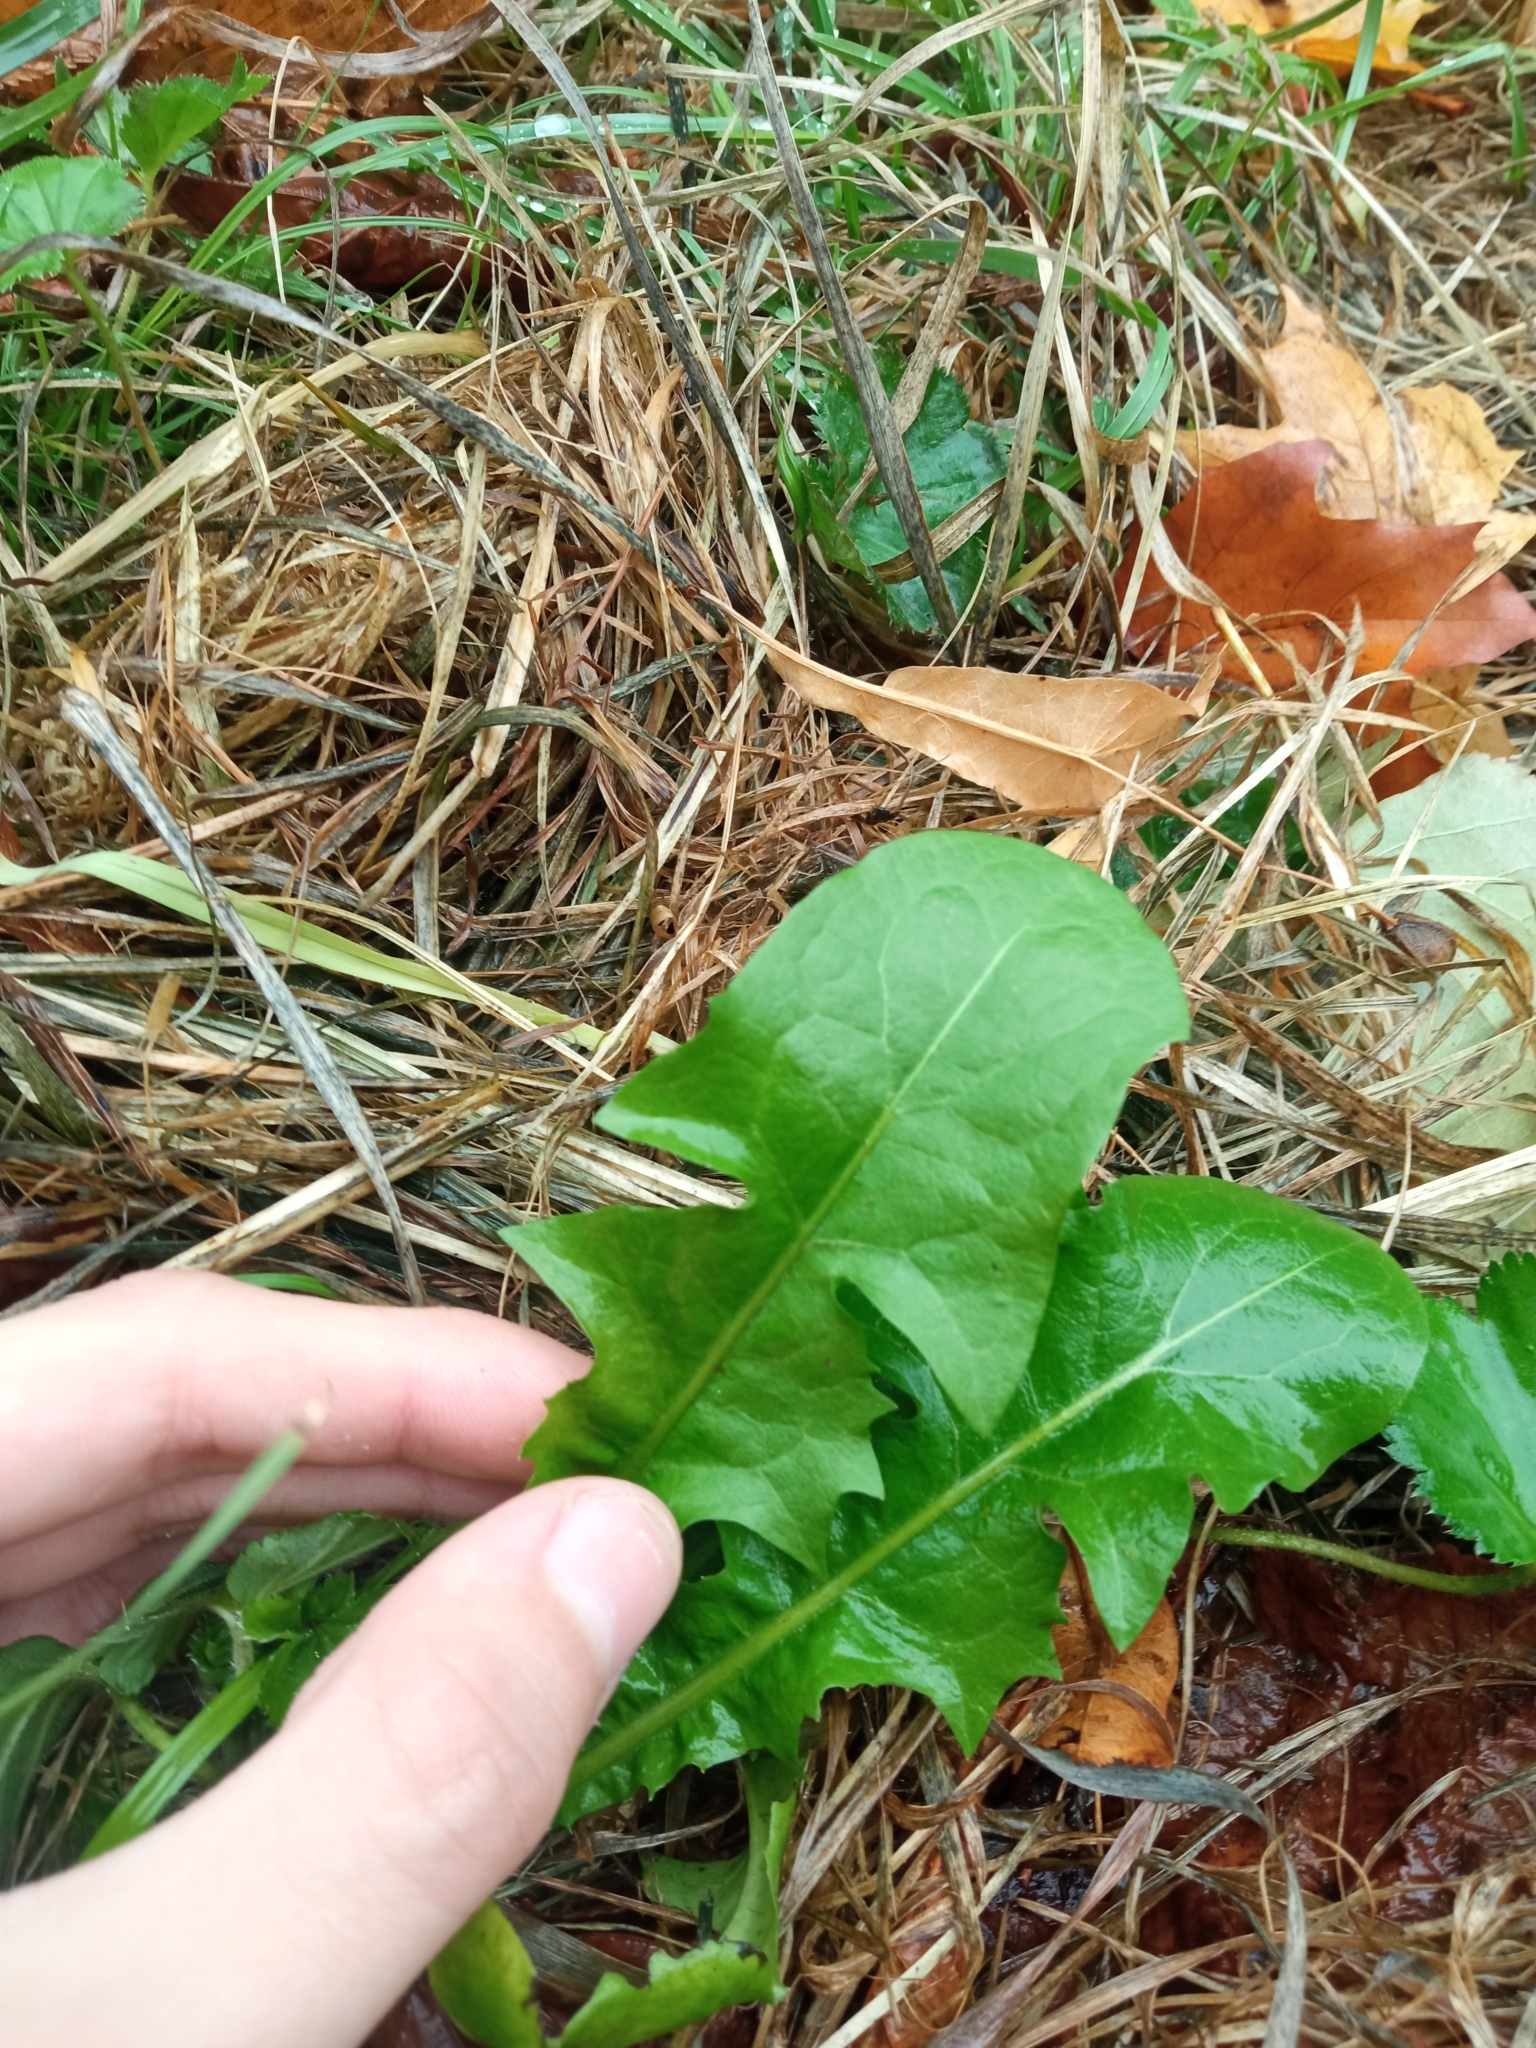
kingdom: Plantae
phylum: Tracheophyta
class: Magnoliopsida
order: Asterales
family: Asteraceae
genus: Taraxacum
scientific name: Taraxacum officinale
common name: Common dandelion
